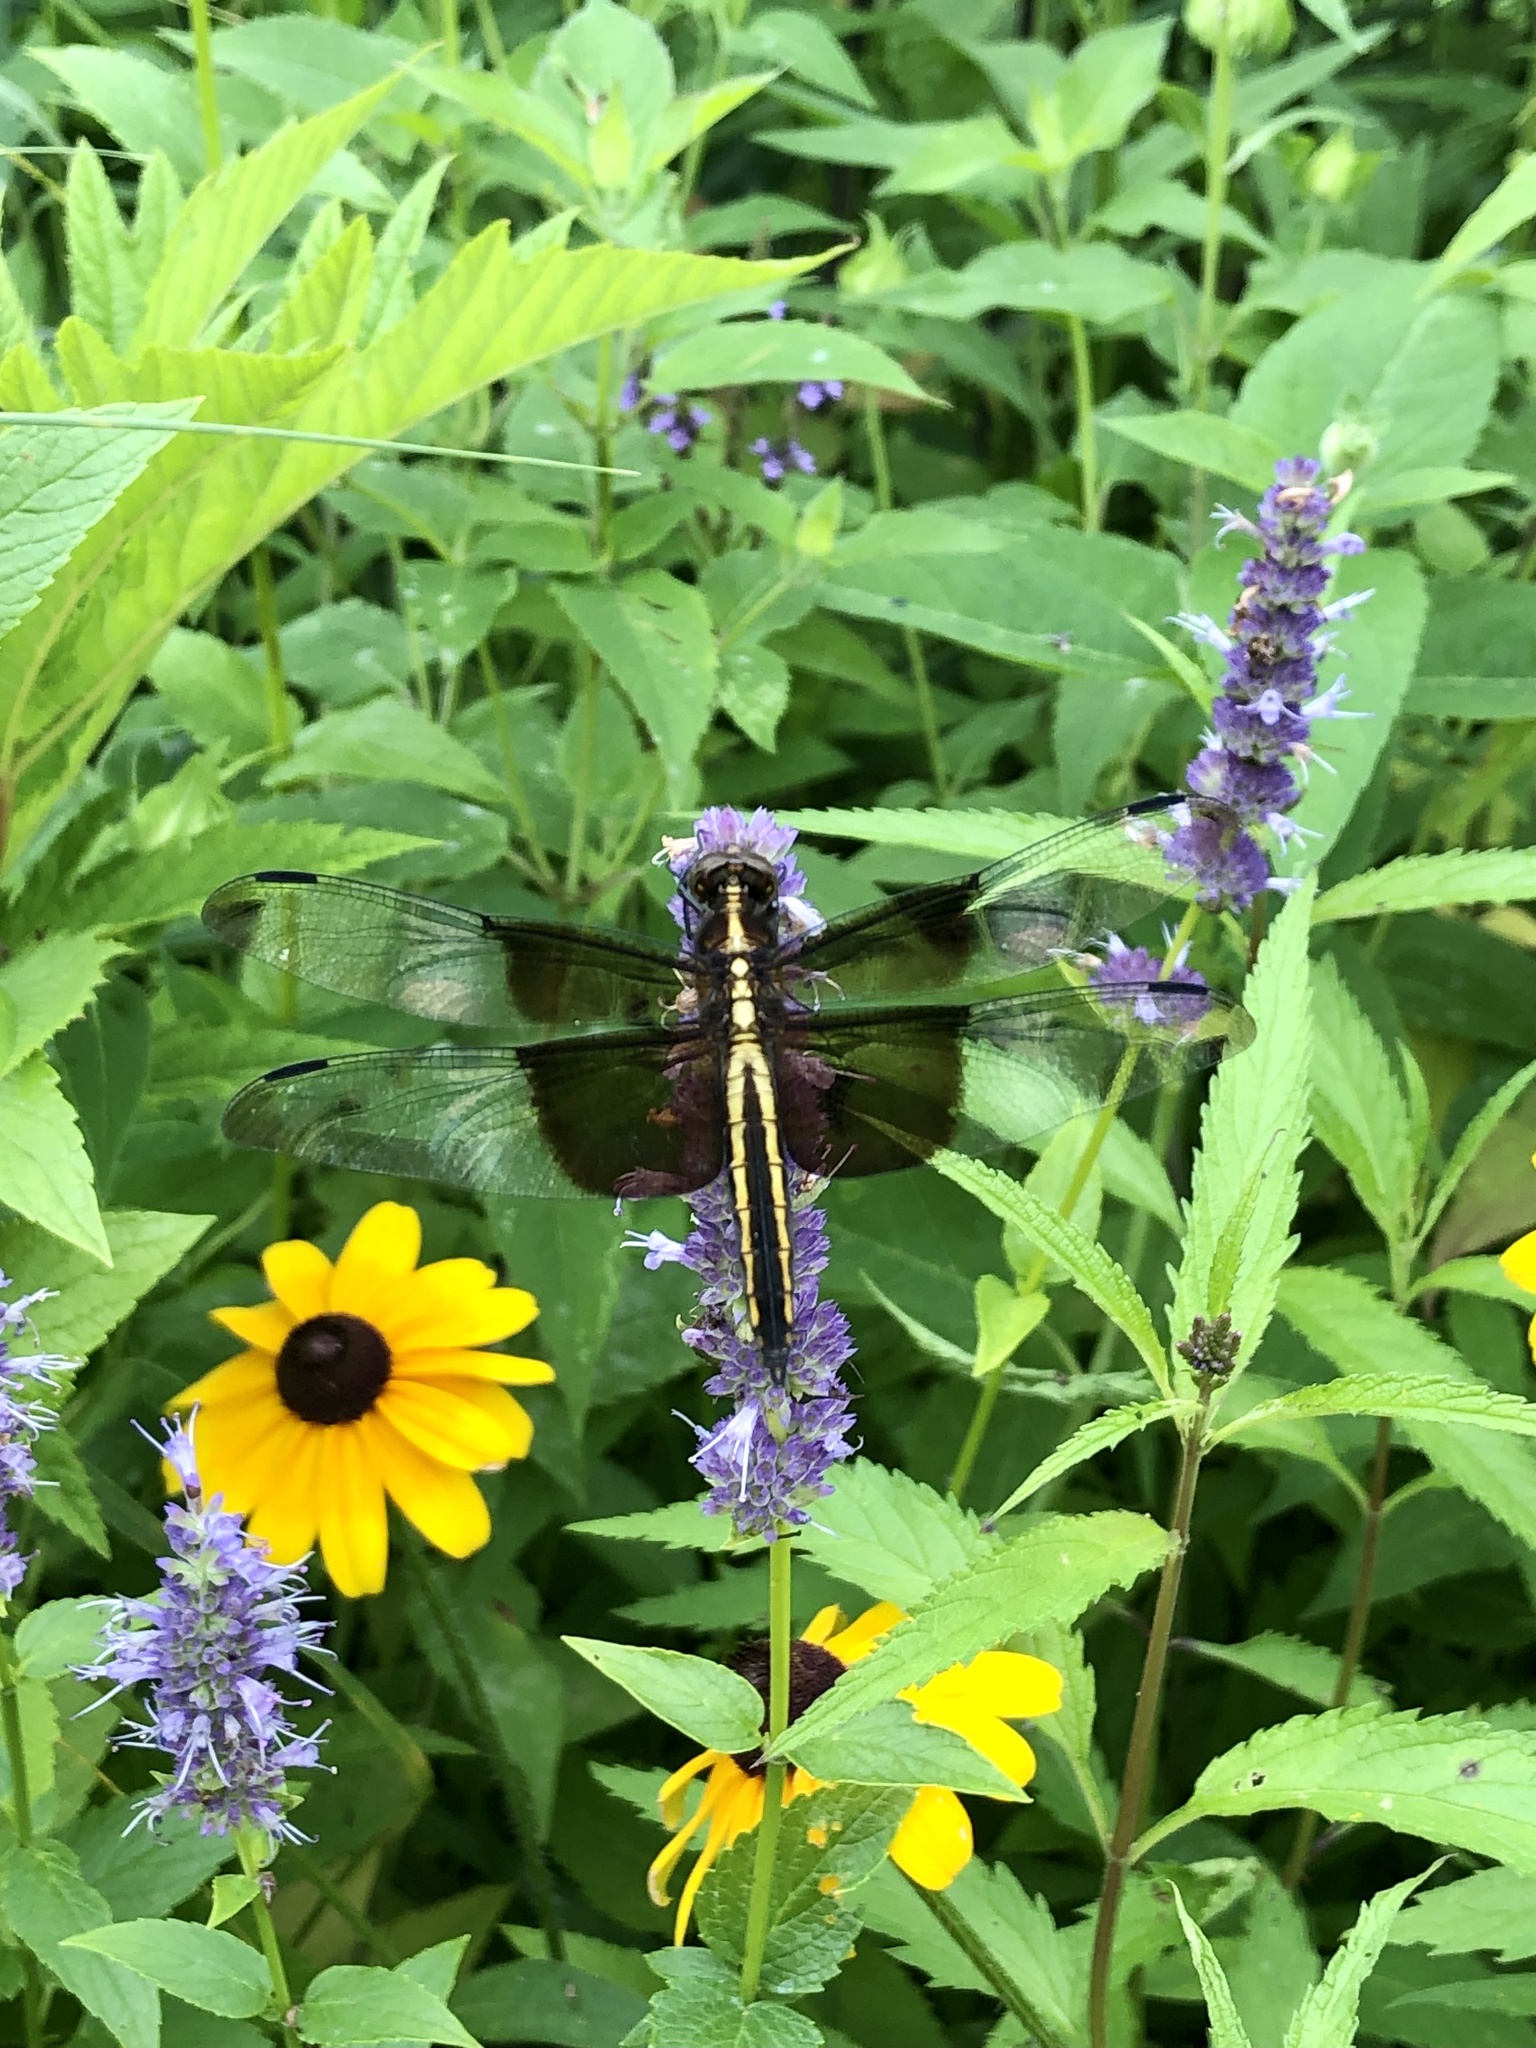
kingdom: Animalia
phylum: Arthropoda
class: Insecta
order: Odonata
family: Libellulidae
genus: Libellula
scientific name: Libellula luctuosa
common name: Widow skimmer
